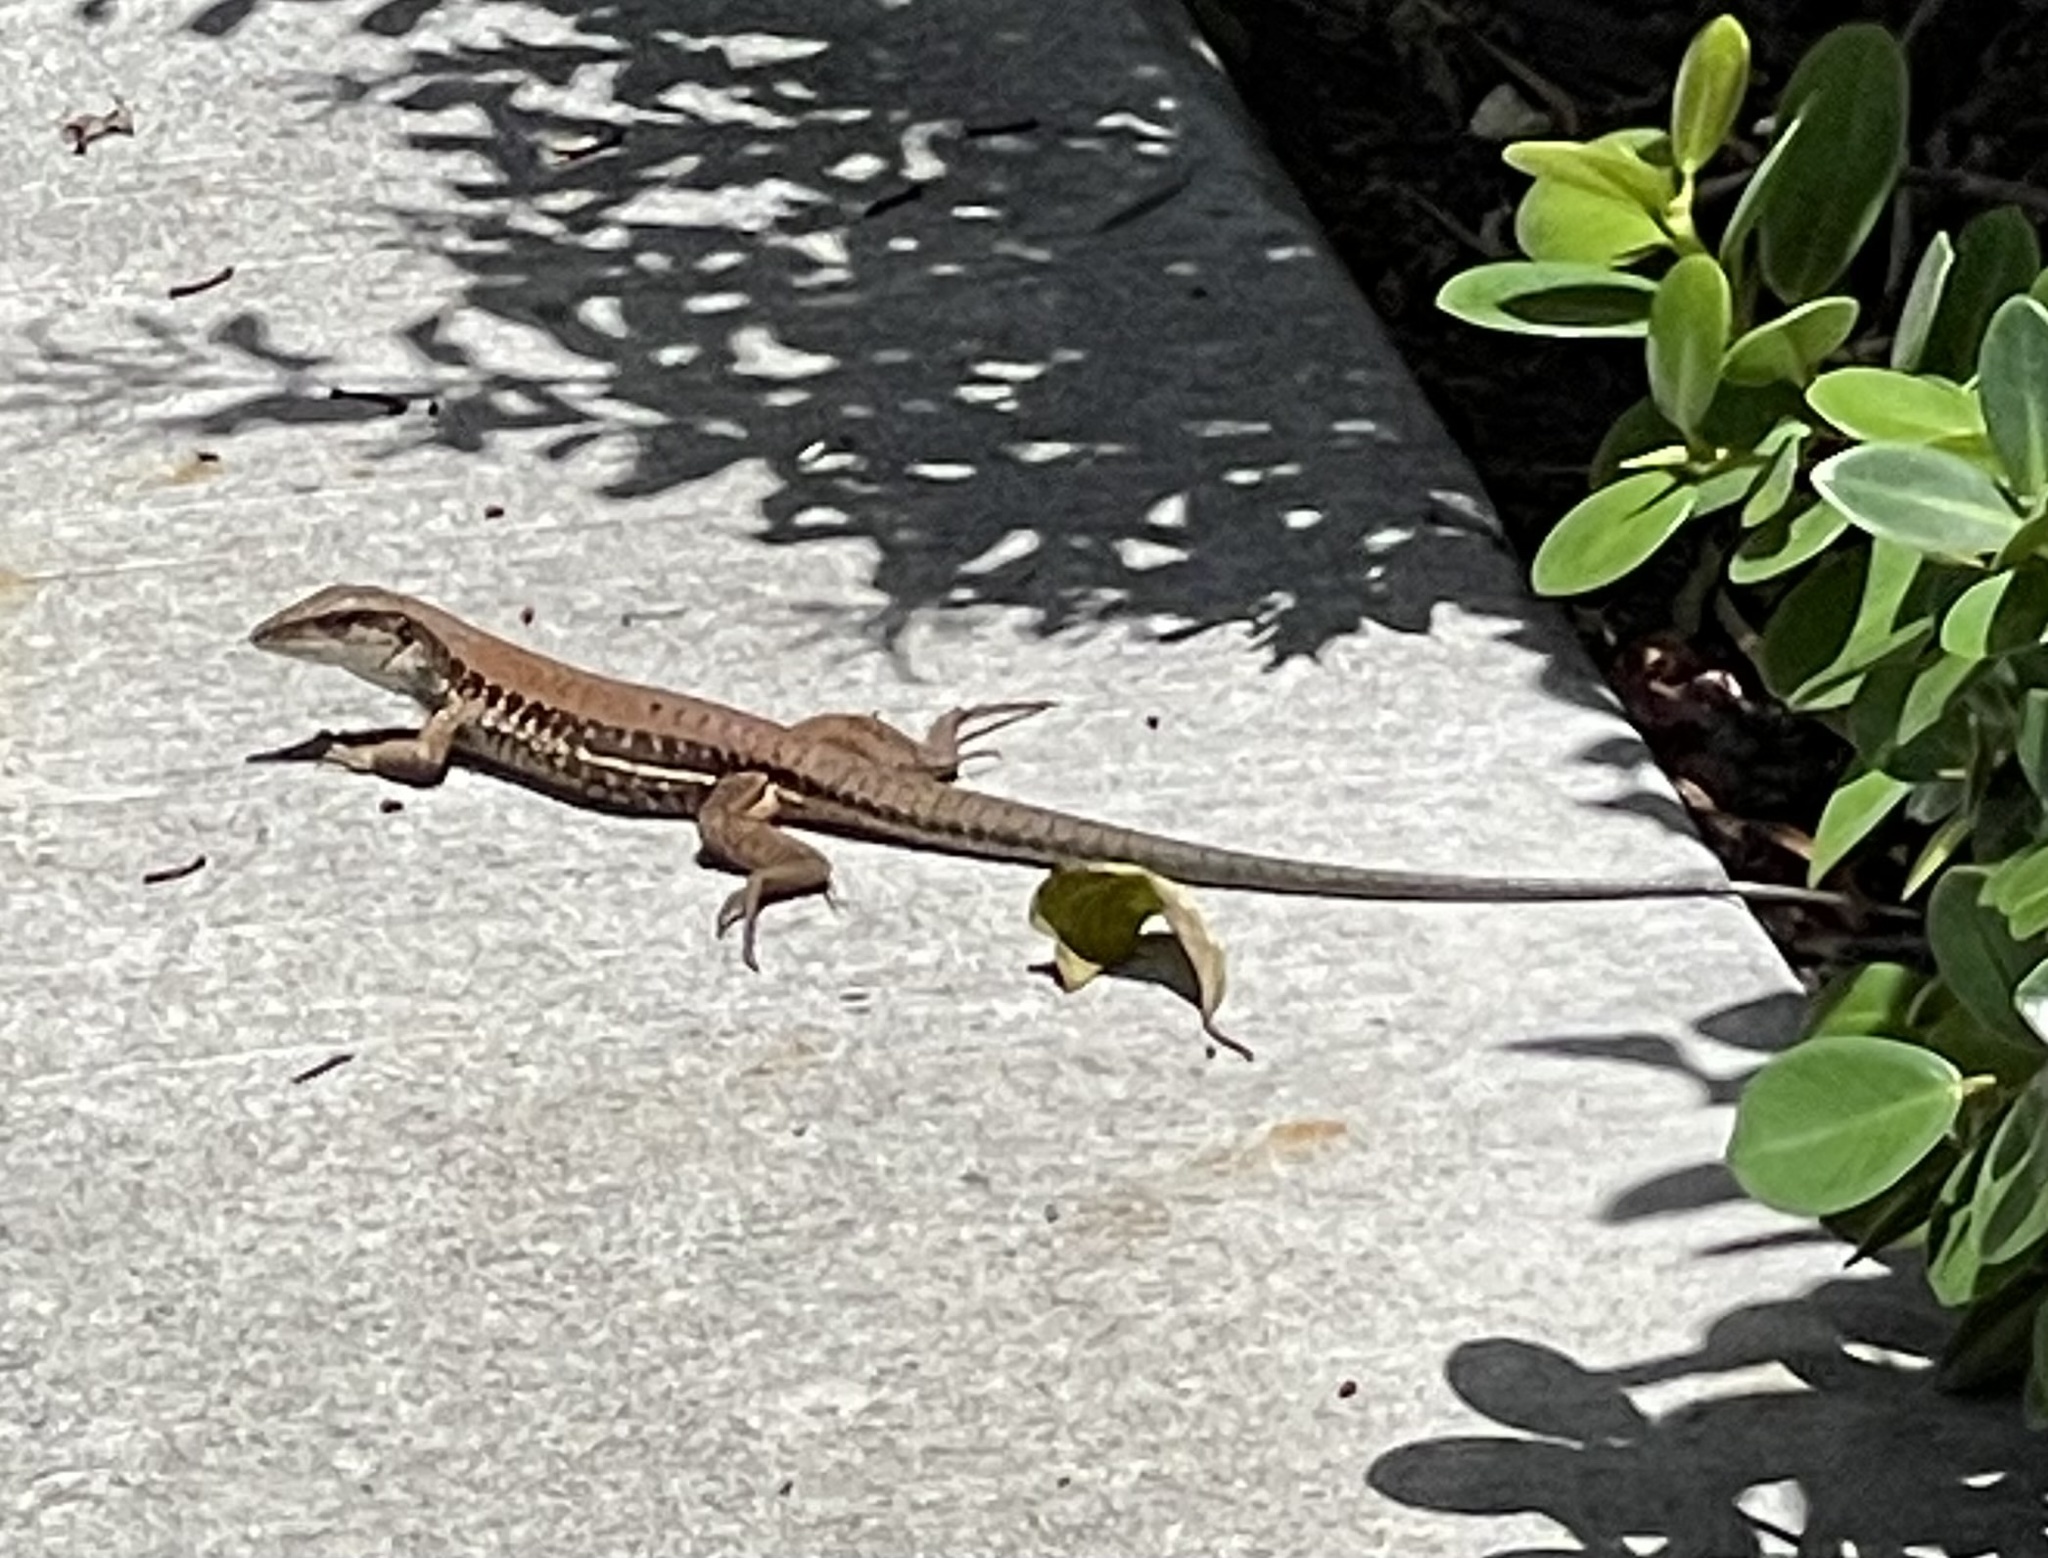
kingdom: Animalia
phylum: Chordata
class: Squamata
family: Teiidae
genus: Ameiva
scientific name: Ameiva ameiva
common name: Giant ameiva
